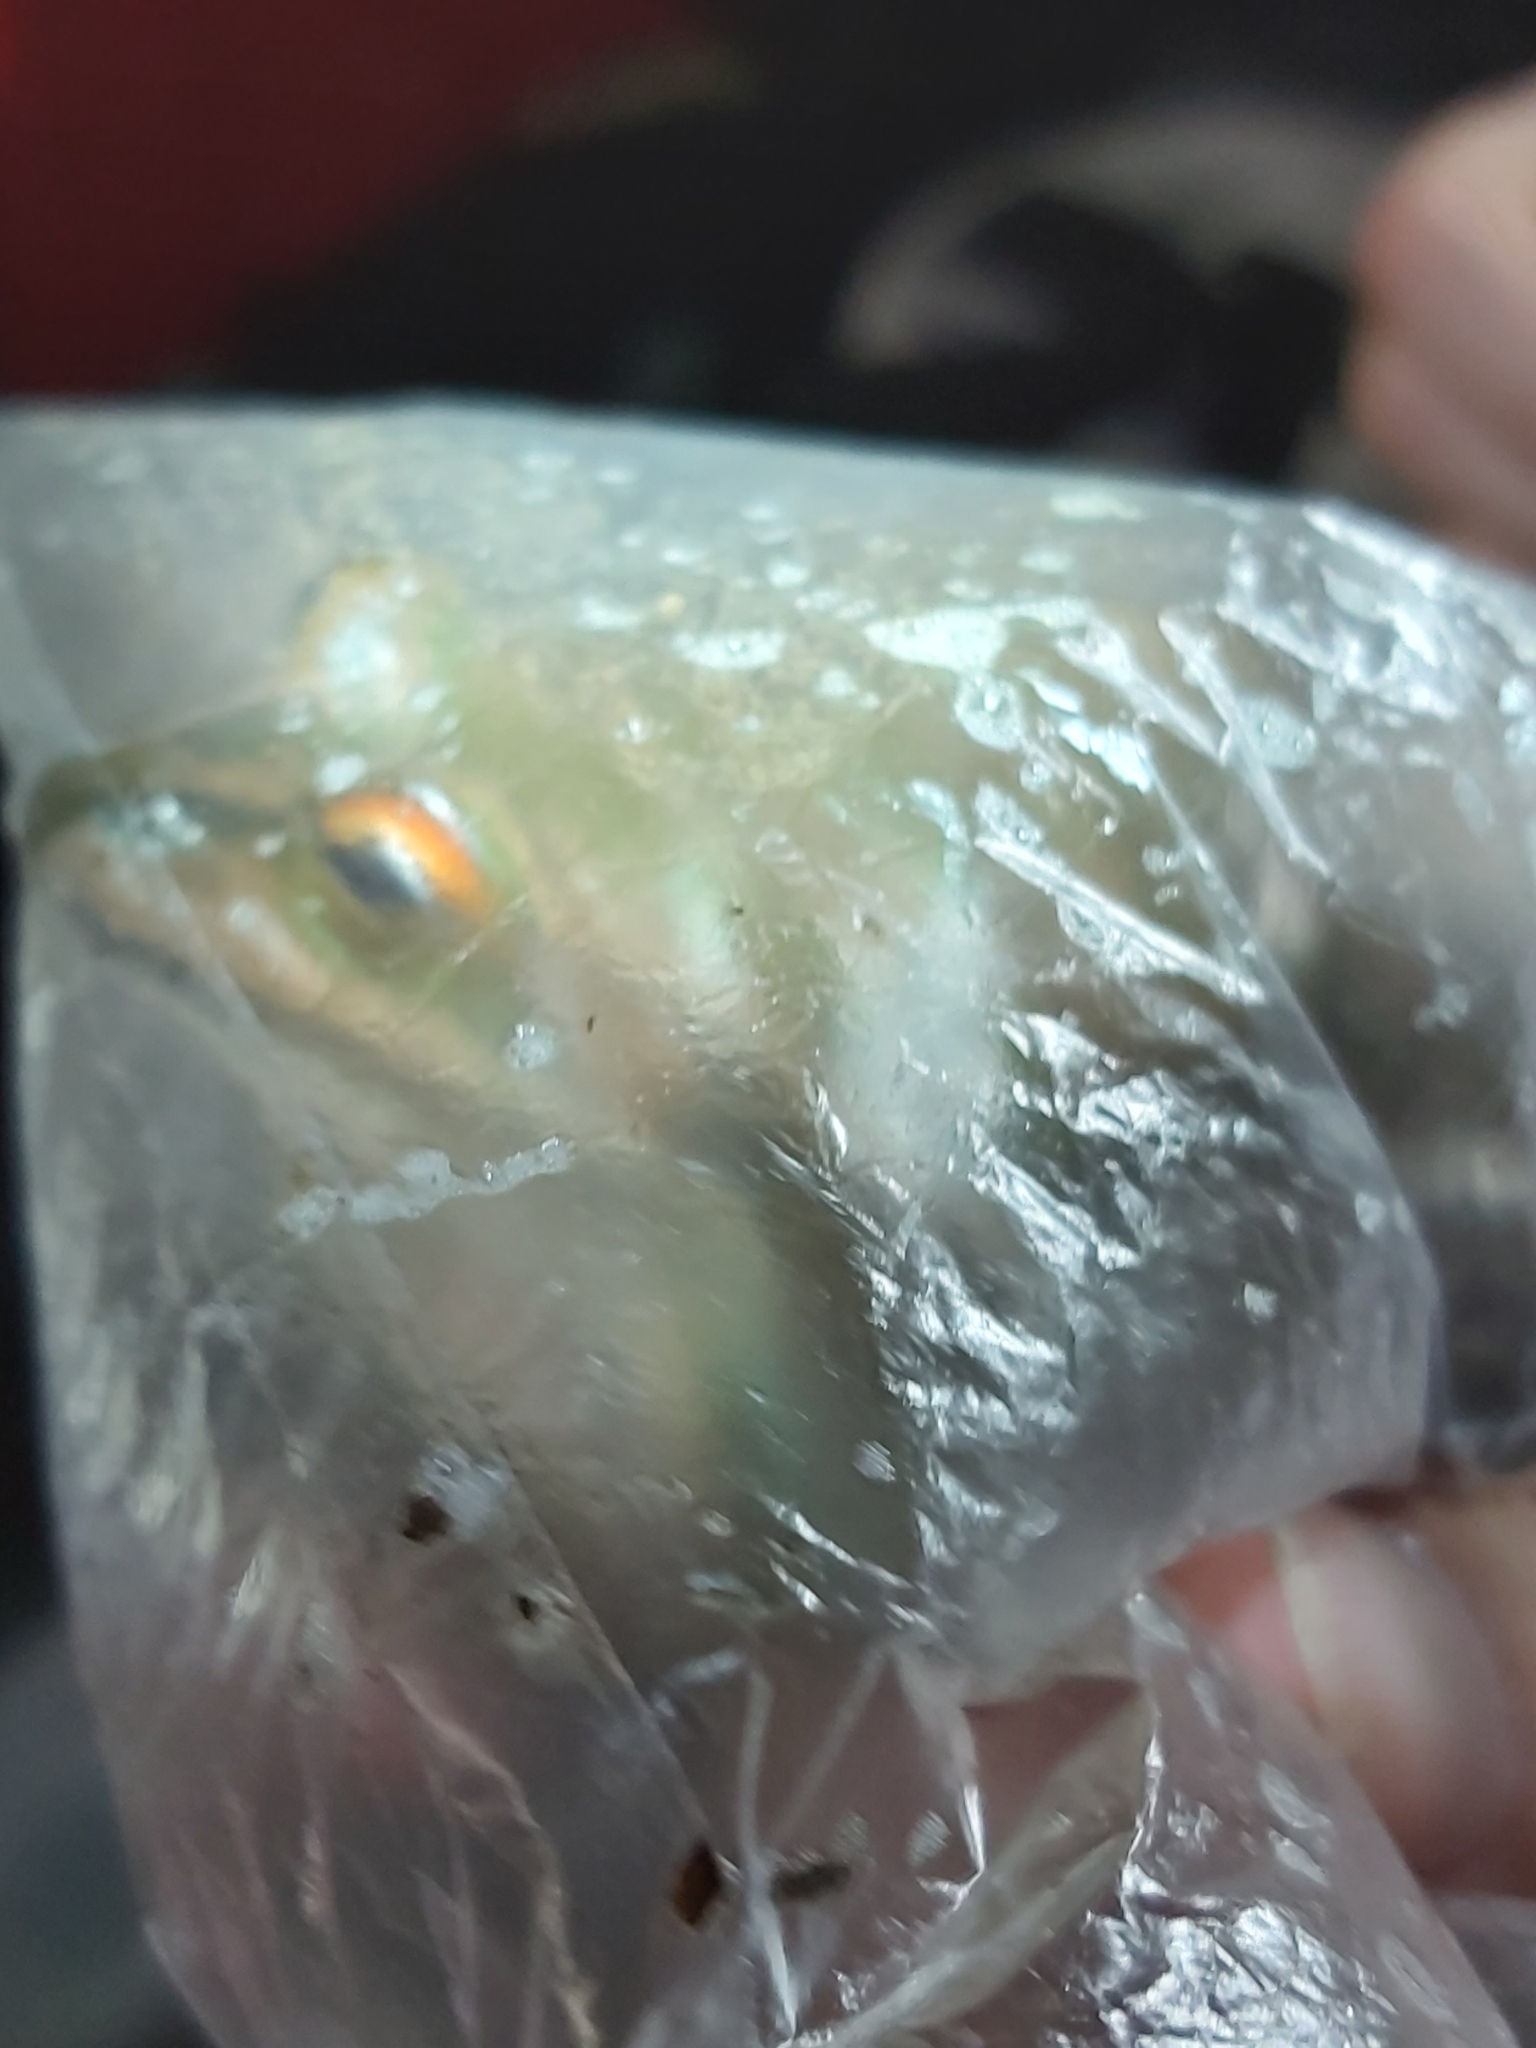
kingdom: Animalia
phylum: Chordata
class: Amphibia
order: Anura
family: Pelodryadidae
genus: Ranoidea
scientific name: Ranoidea aurea
